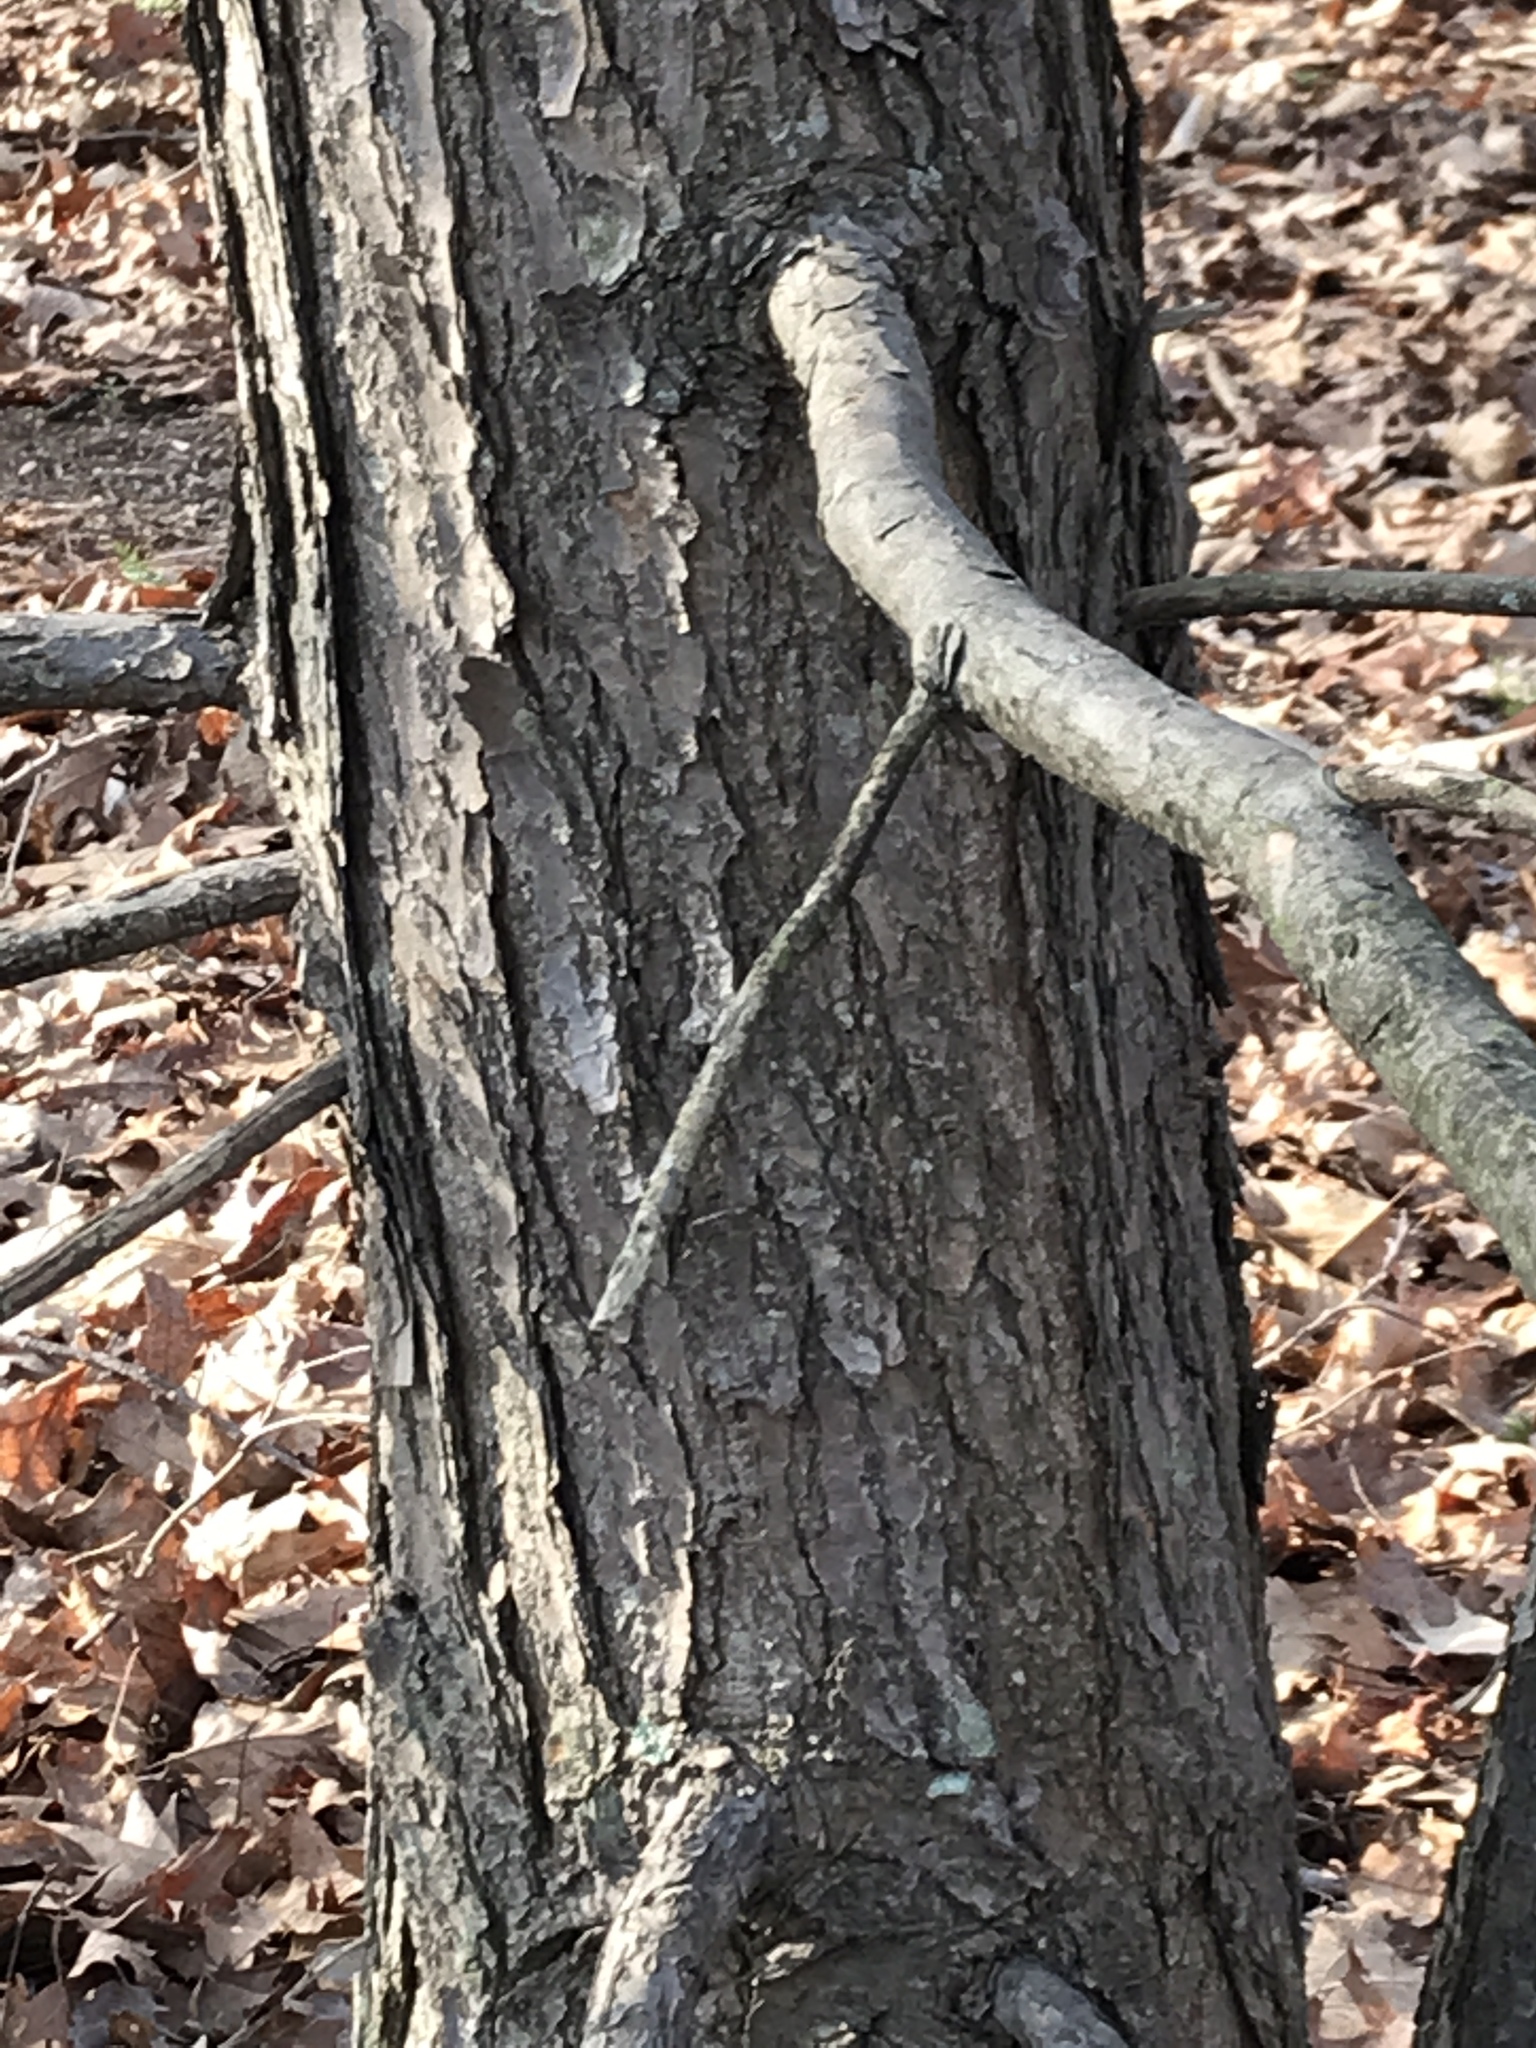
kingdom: Plantae
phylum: Tracheophyta
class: Pinopsida
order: Pinales
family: Pinaceae
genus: Tsuga
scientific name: Tsuga canadensis
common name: Eastern hemlock
